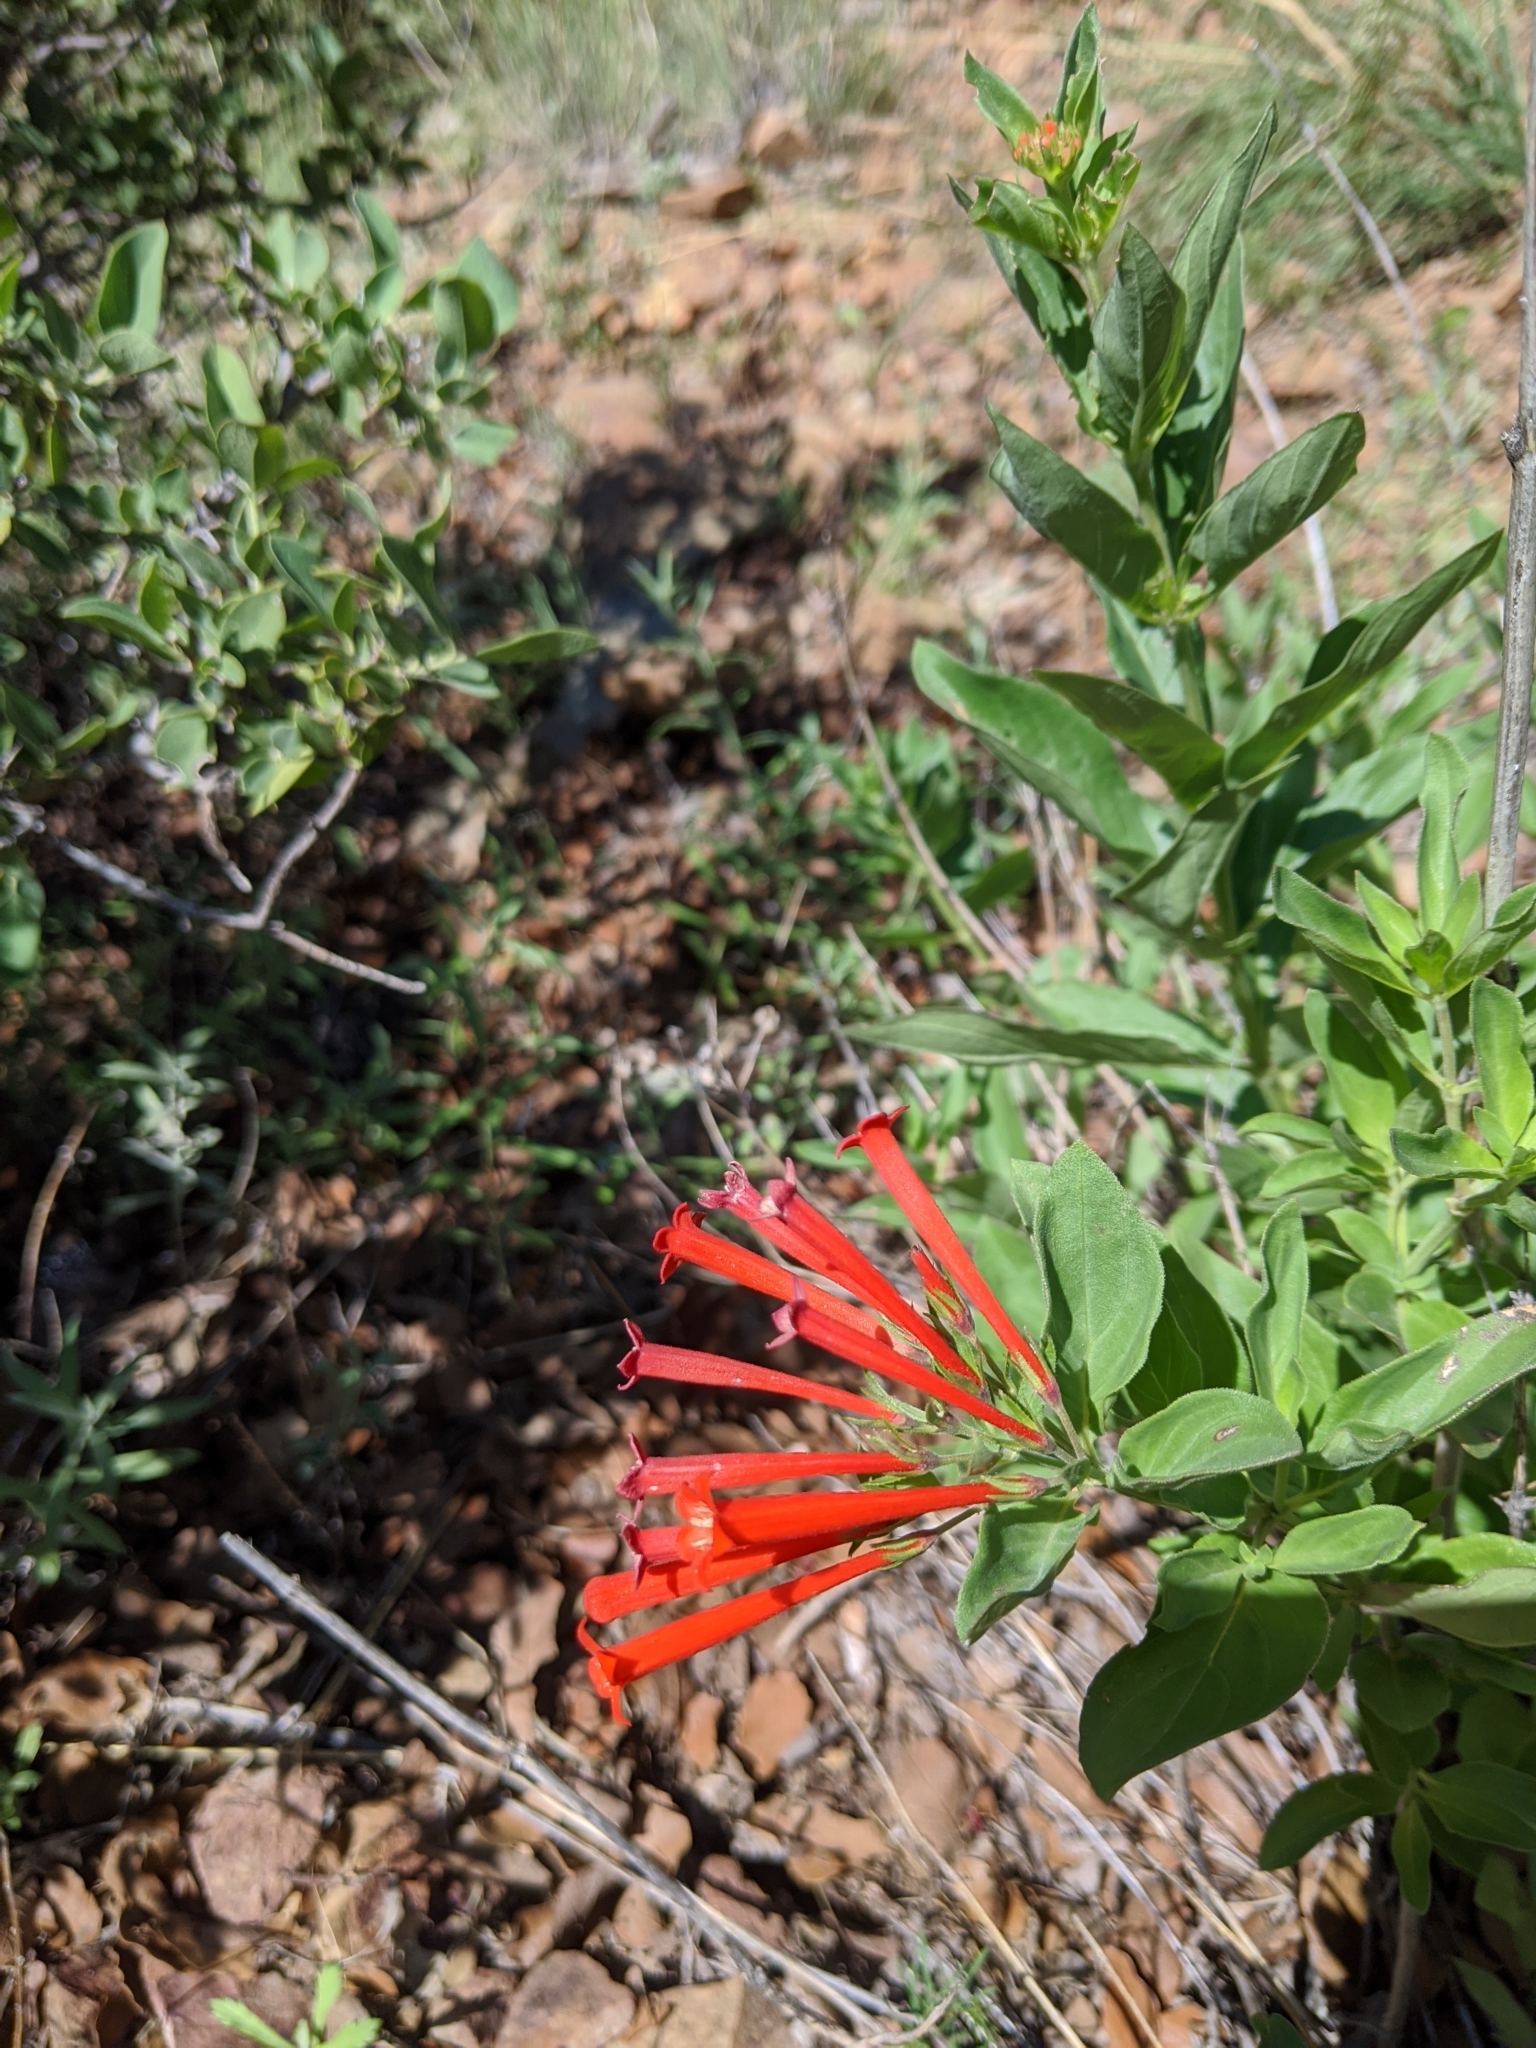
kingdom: Plantae
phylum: Tracheophyta
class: Magnoliopsida
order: Gentianales
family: Rubiaceae
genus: Bouvardia
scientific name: Bouvardia ternifolia
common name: Scarlet bouvardia
